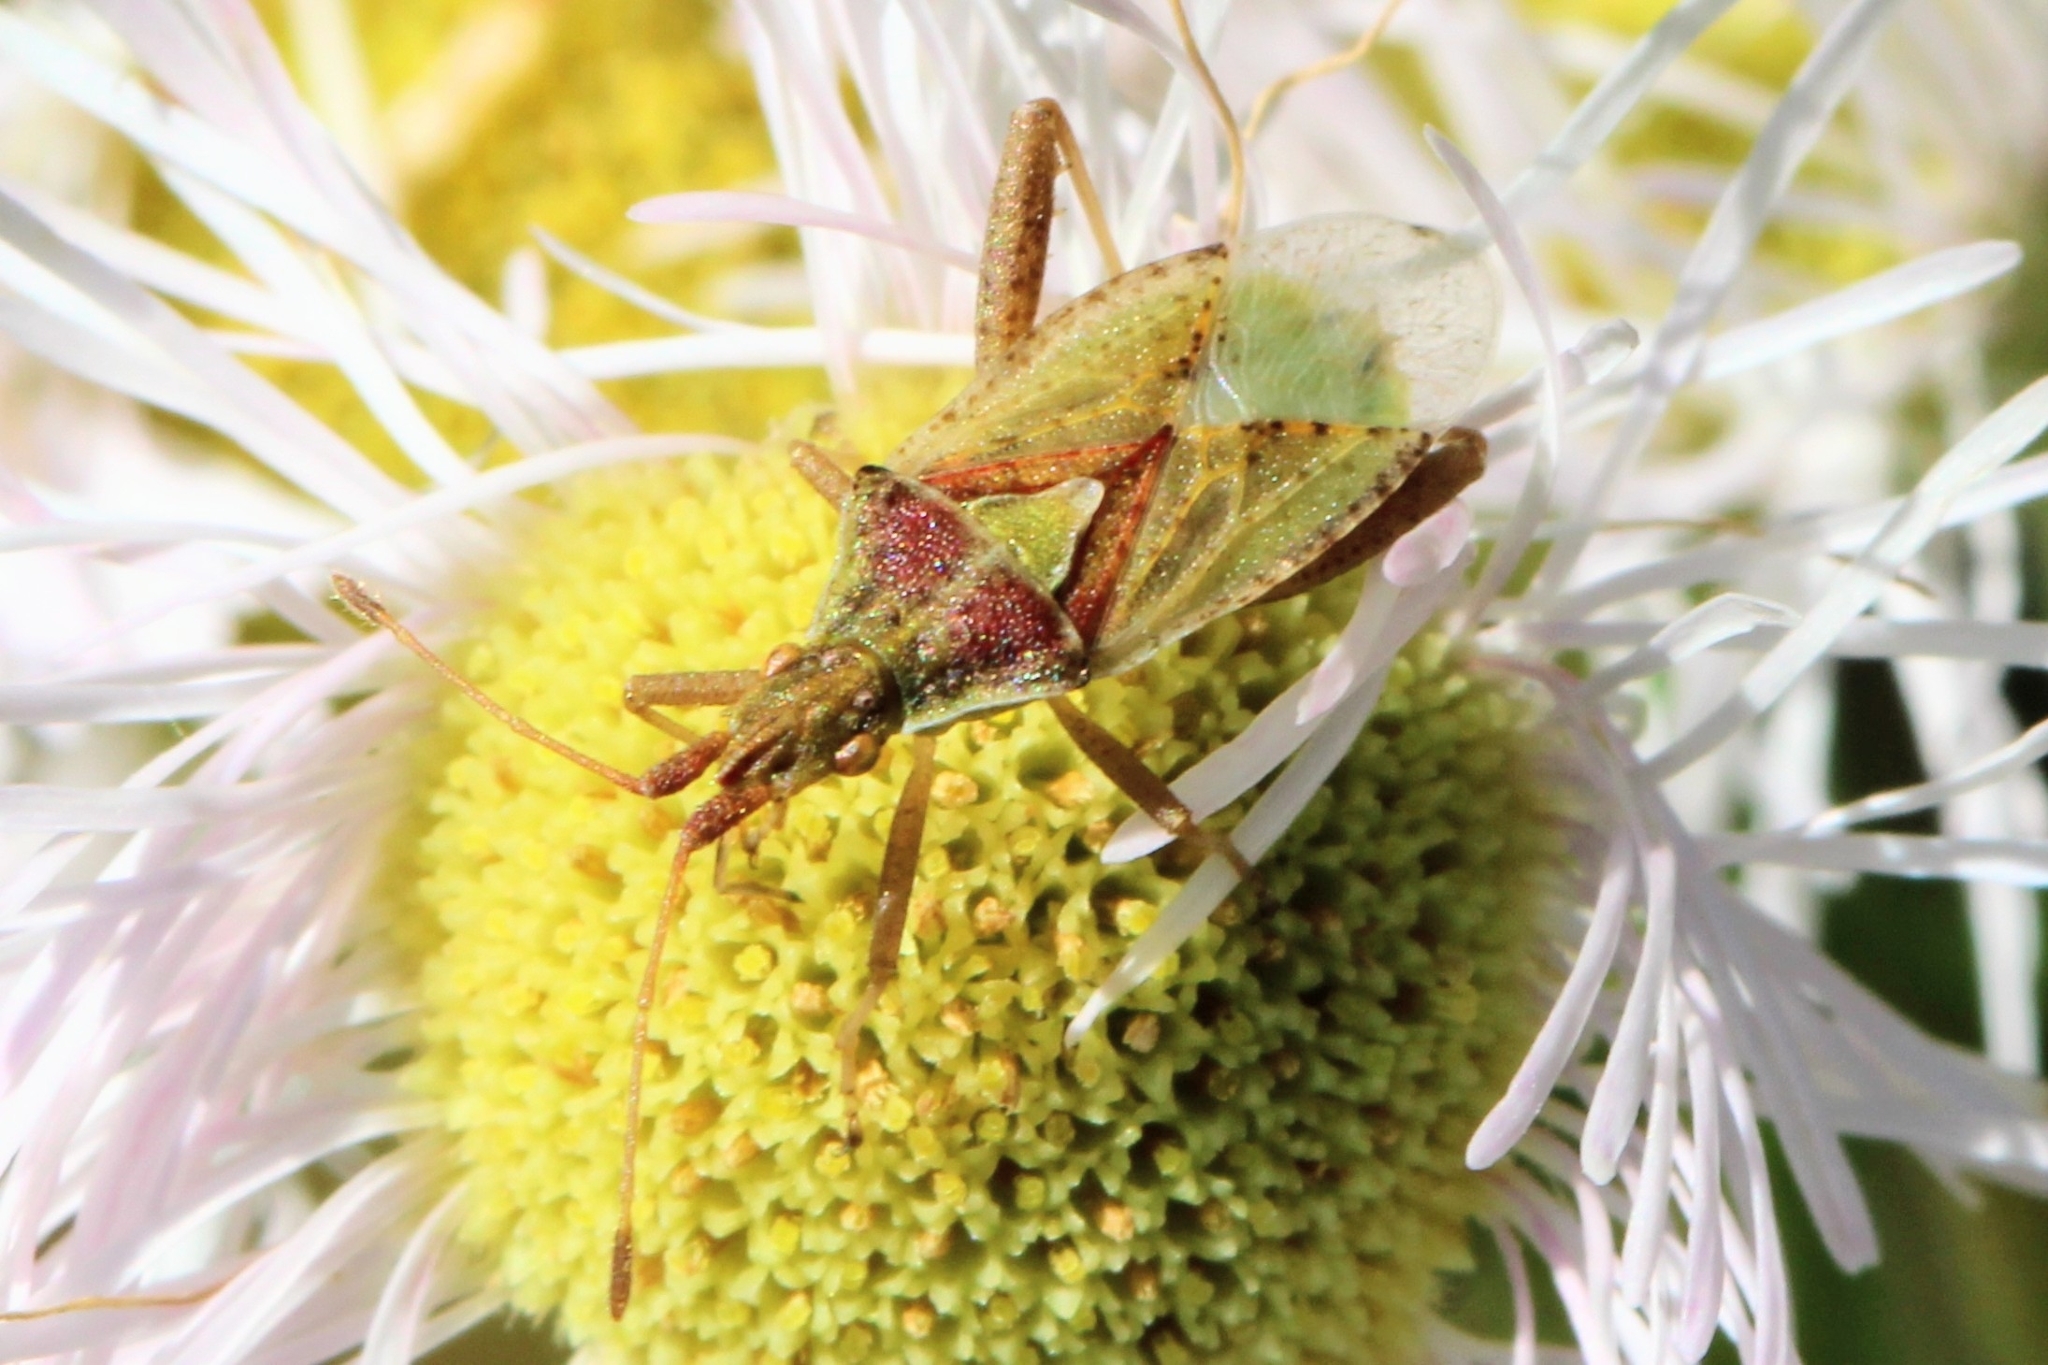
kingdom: Animalia
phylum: Arthropoda
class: Insecta
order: Hemiptera
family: Rhopalidae
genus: Harmostes
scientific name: Harmostes reflexulus
